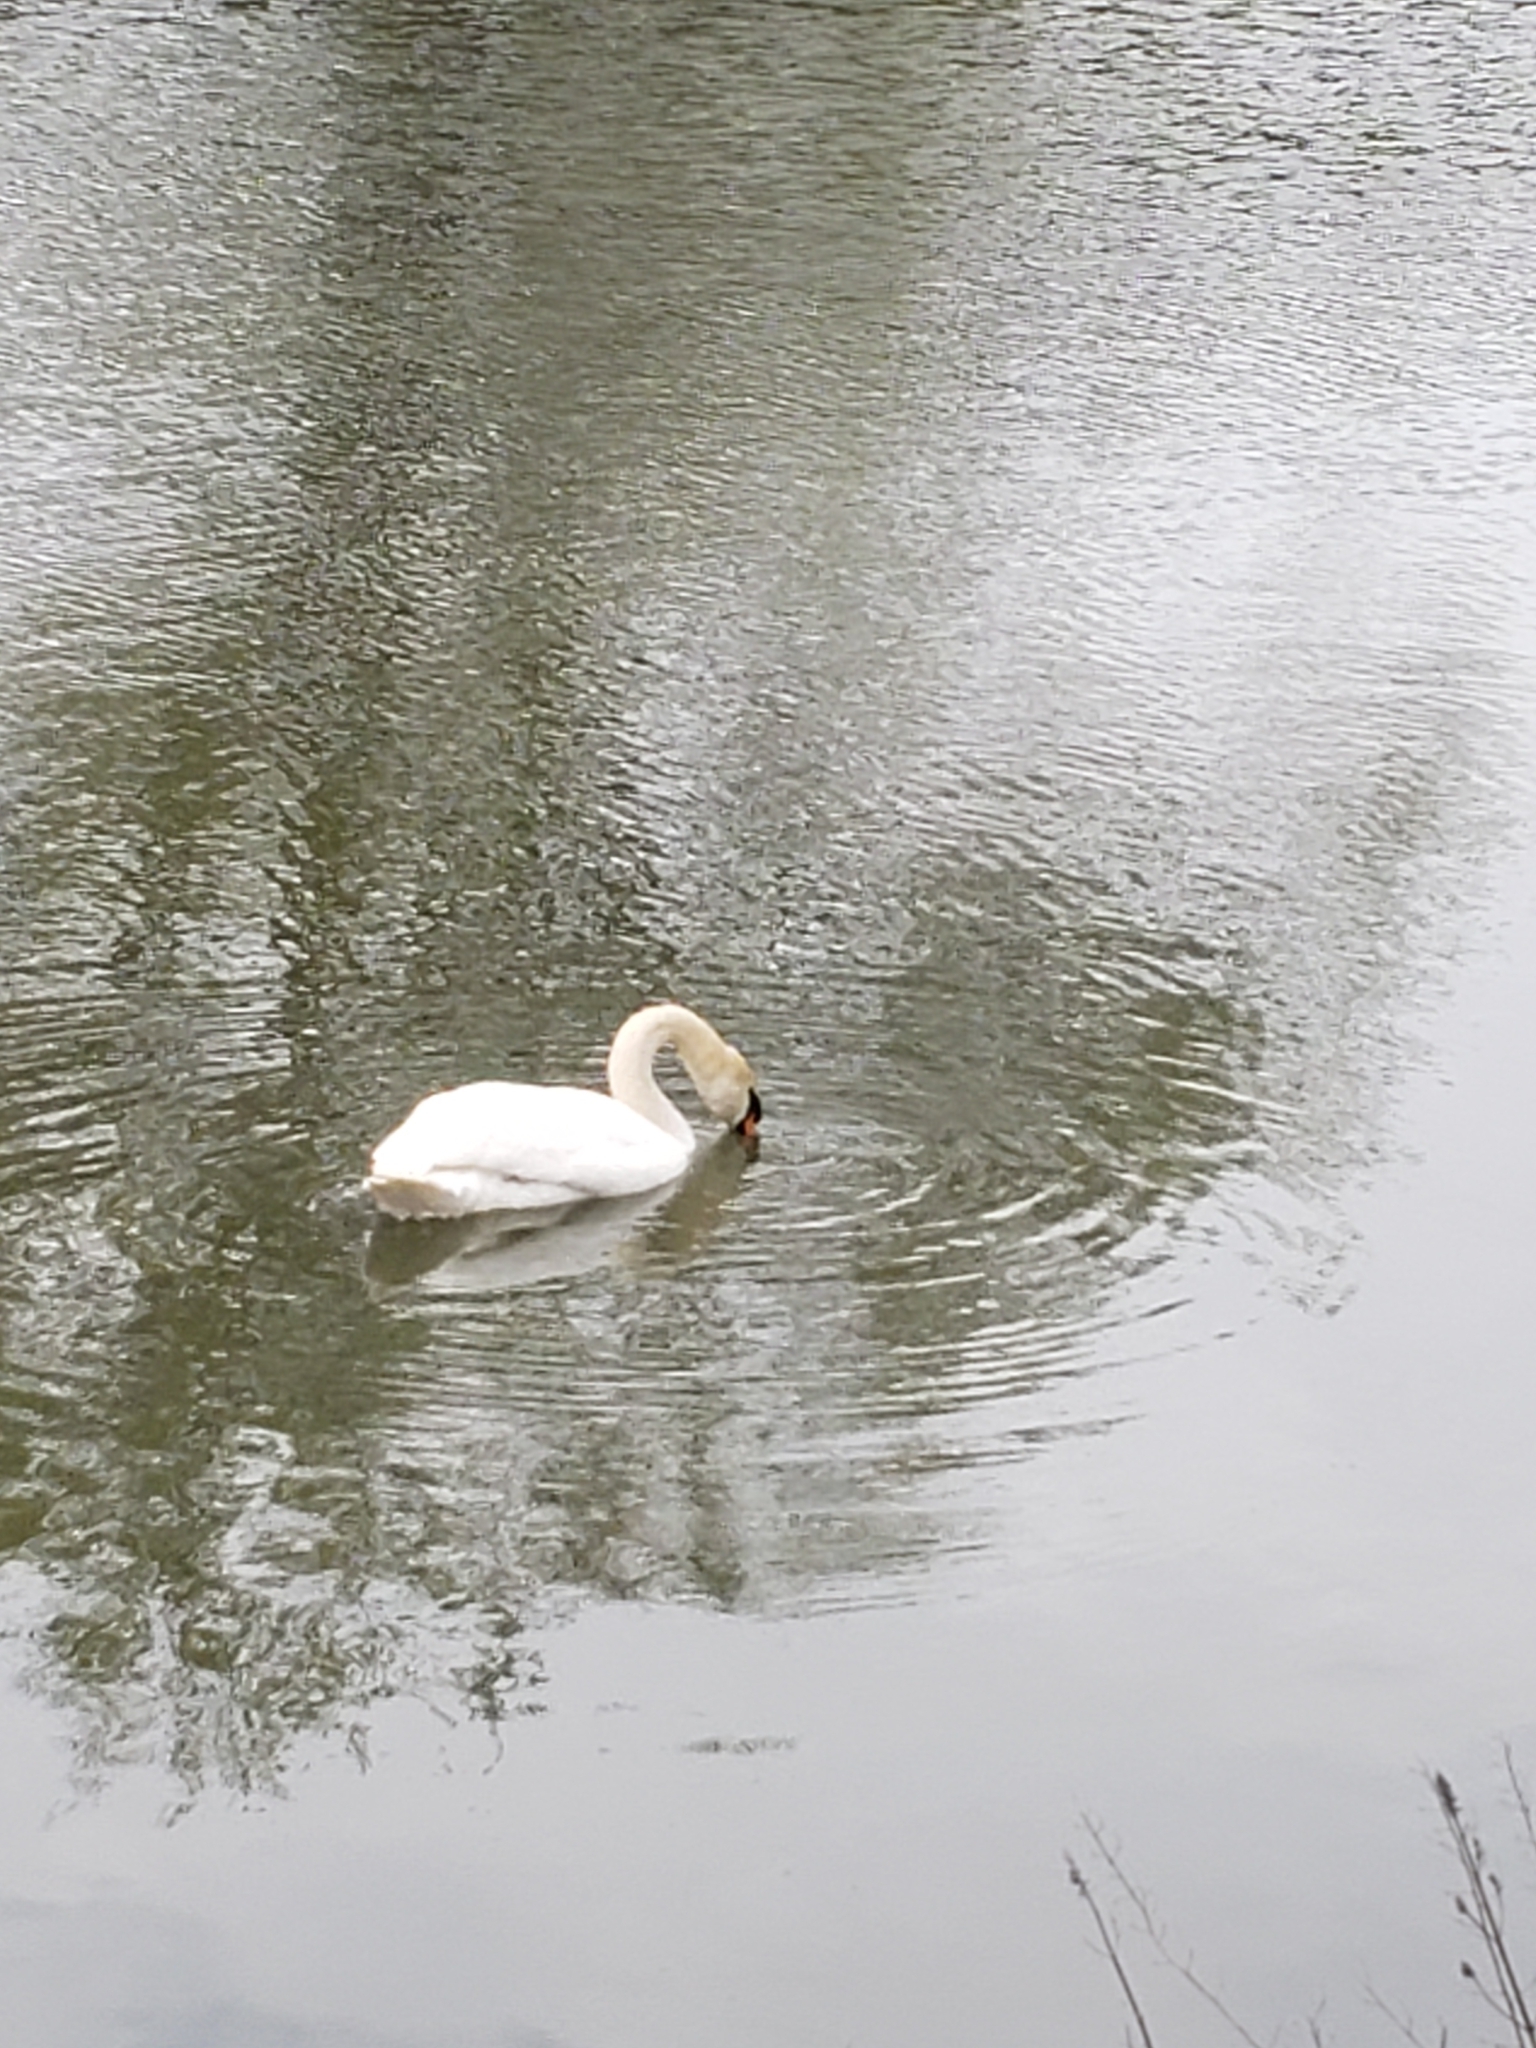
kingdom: Animalia
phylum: Chordata
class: Aves
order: Anseriformes
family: Anatidae
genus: Cygnus
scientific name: Cygnus olor
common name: Mute swan
